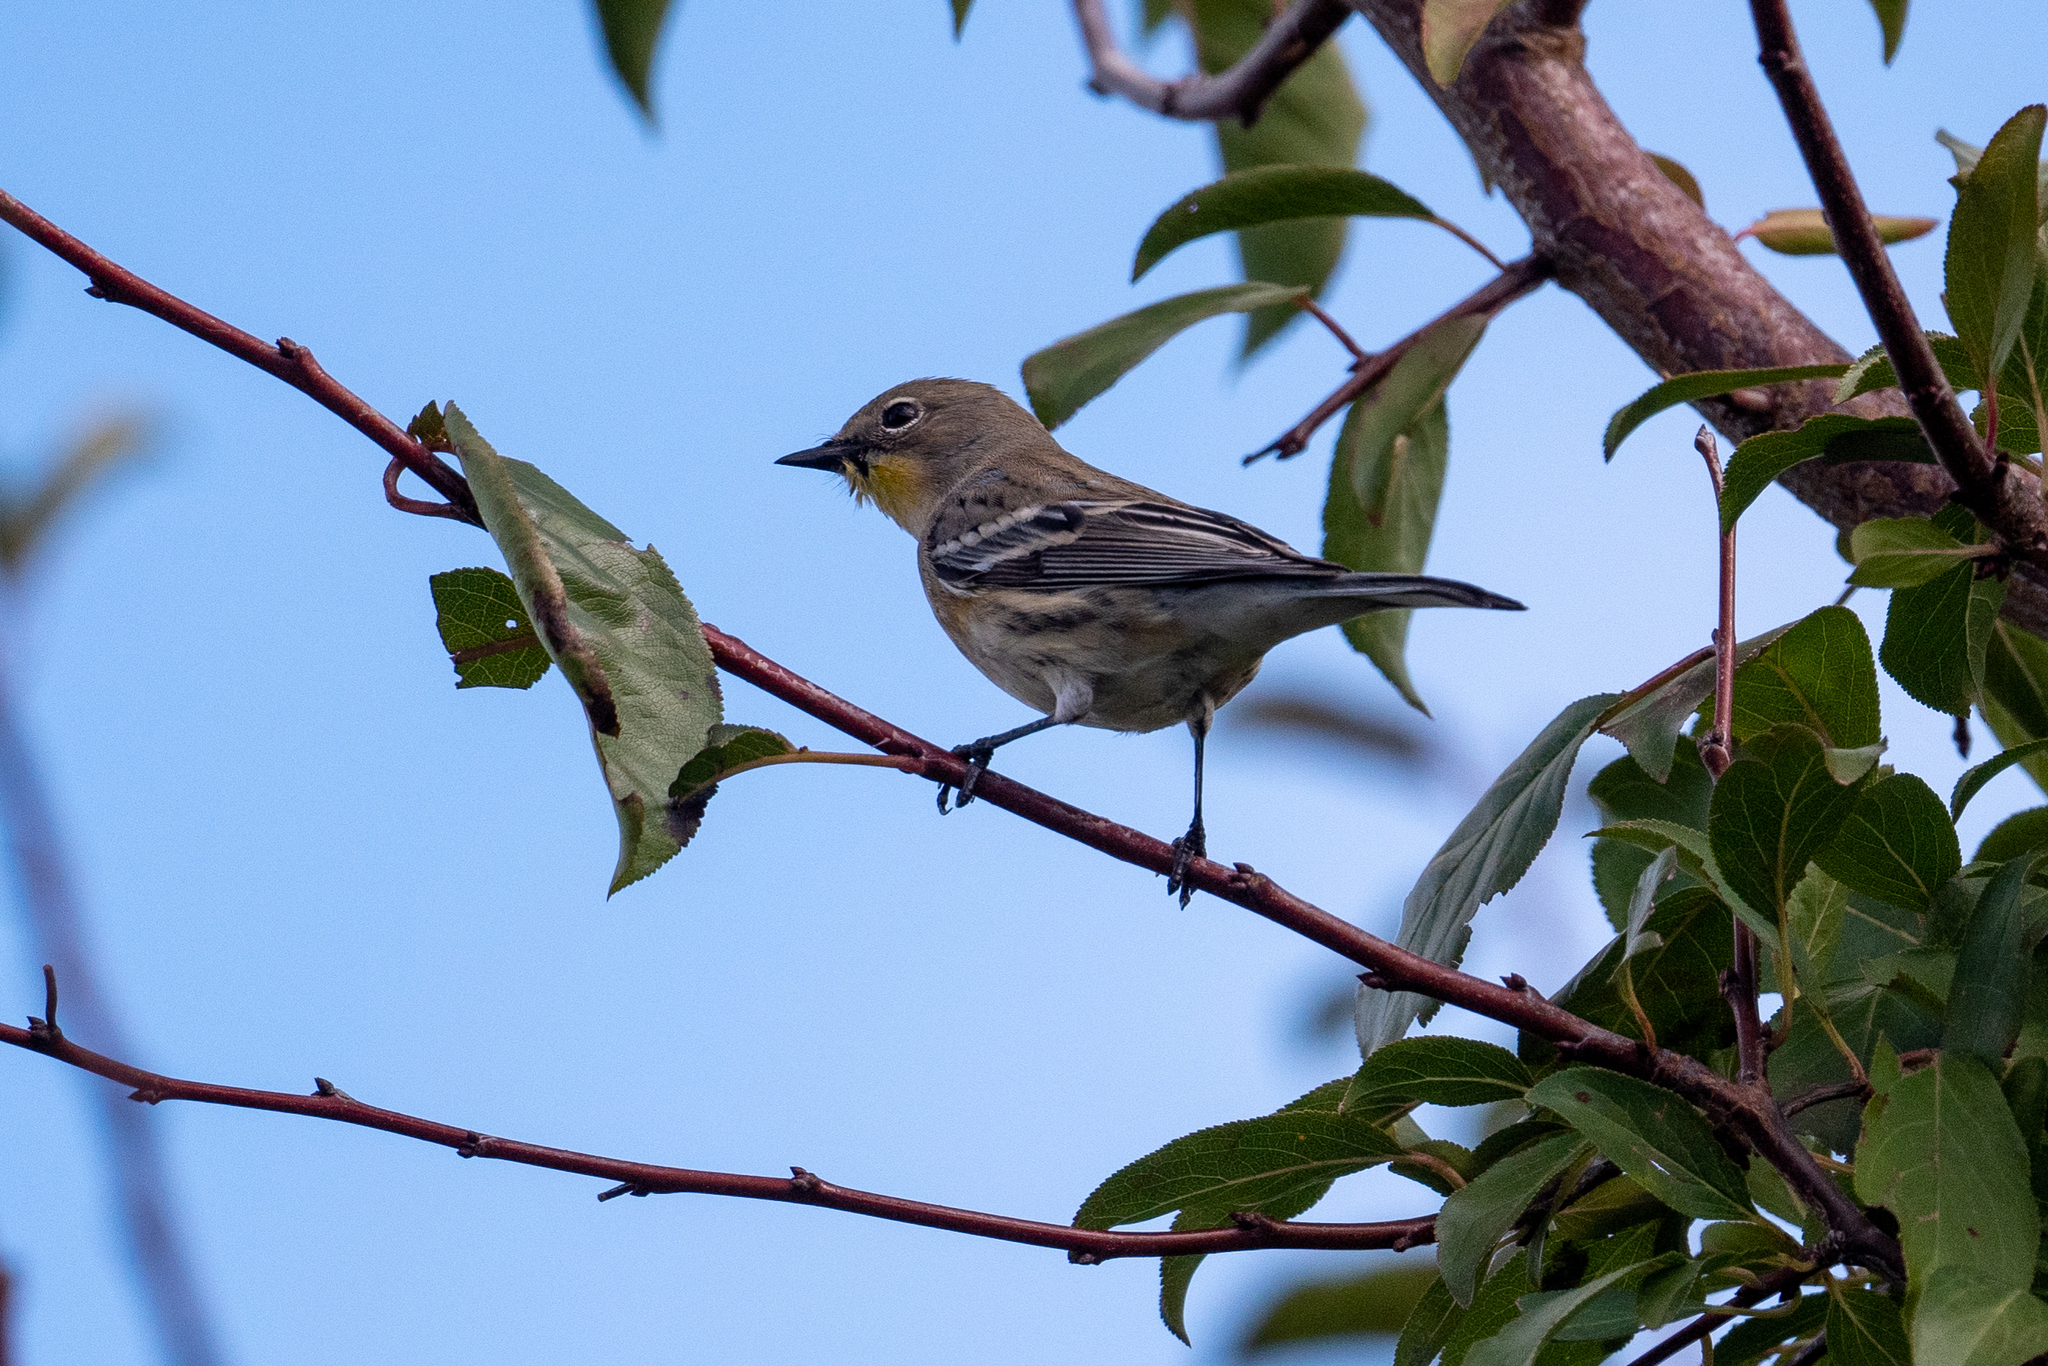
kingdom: Animalia
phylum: Chordata
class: Aves
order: Passeriformes
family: Parulidae
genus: Setophaga
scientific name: Setophaga coronata
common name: Myrtle warbler
